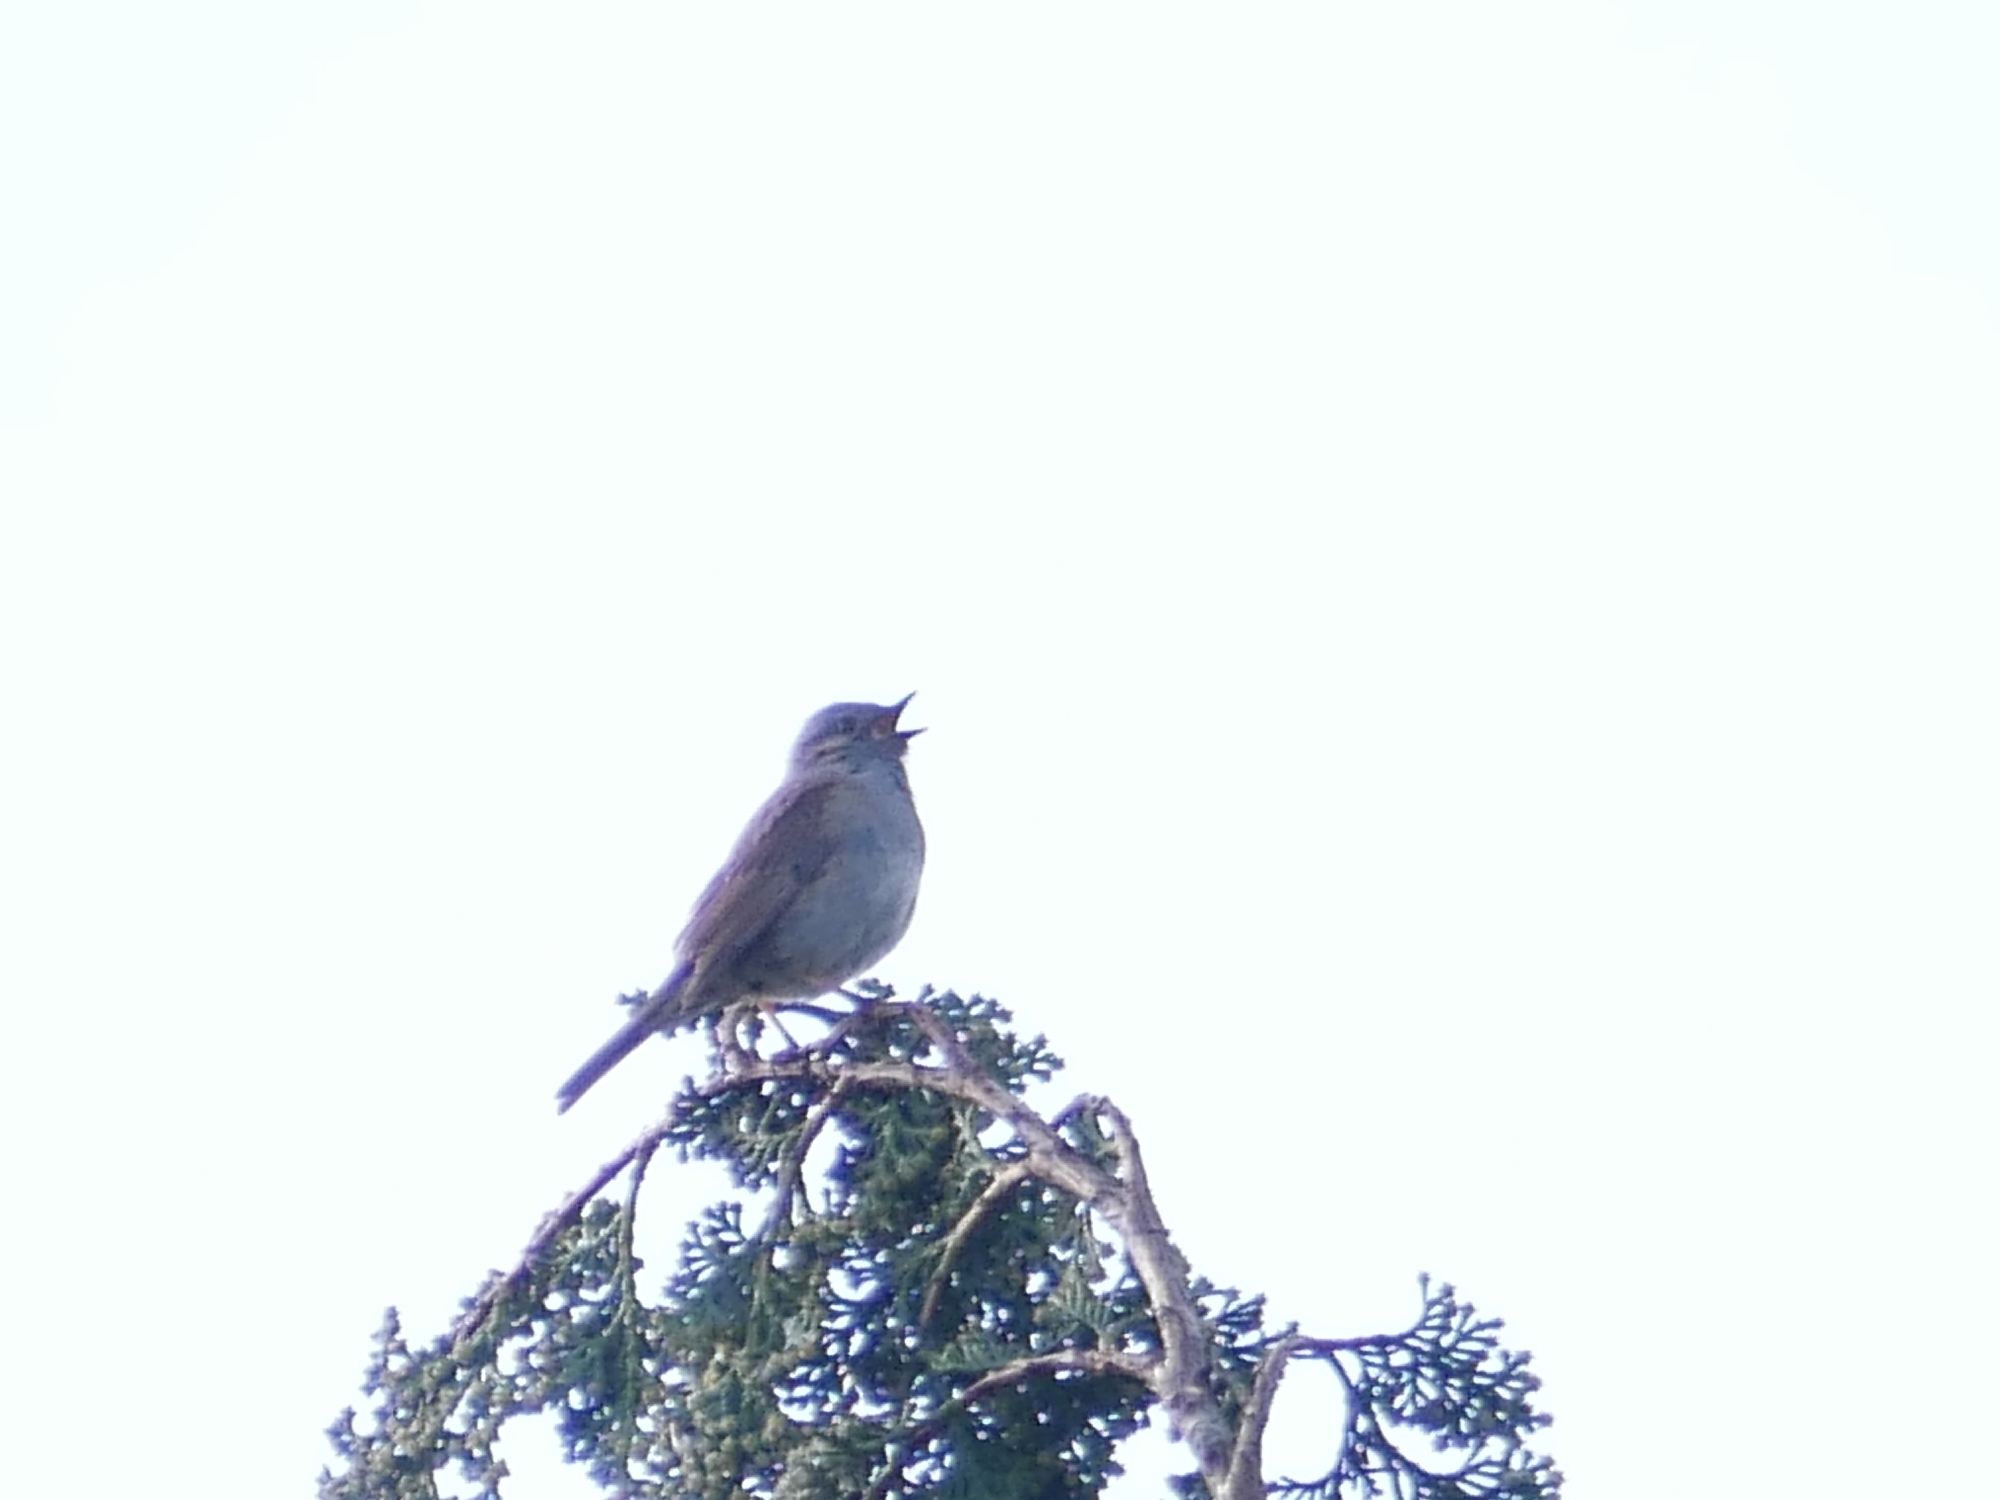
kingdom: Animalia
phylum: Chordata
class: Aves
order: Passeriformes
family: Prunellidae
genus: Prunella
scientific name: Prunella modularis
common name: Dunnock
